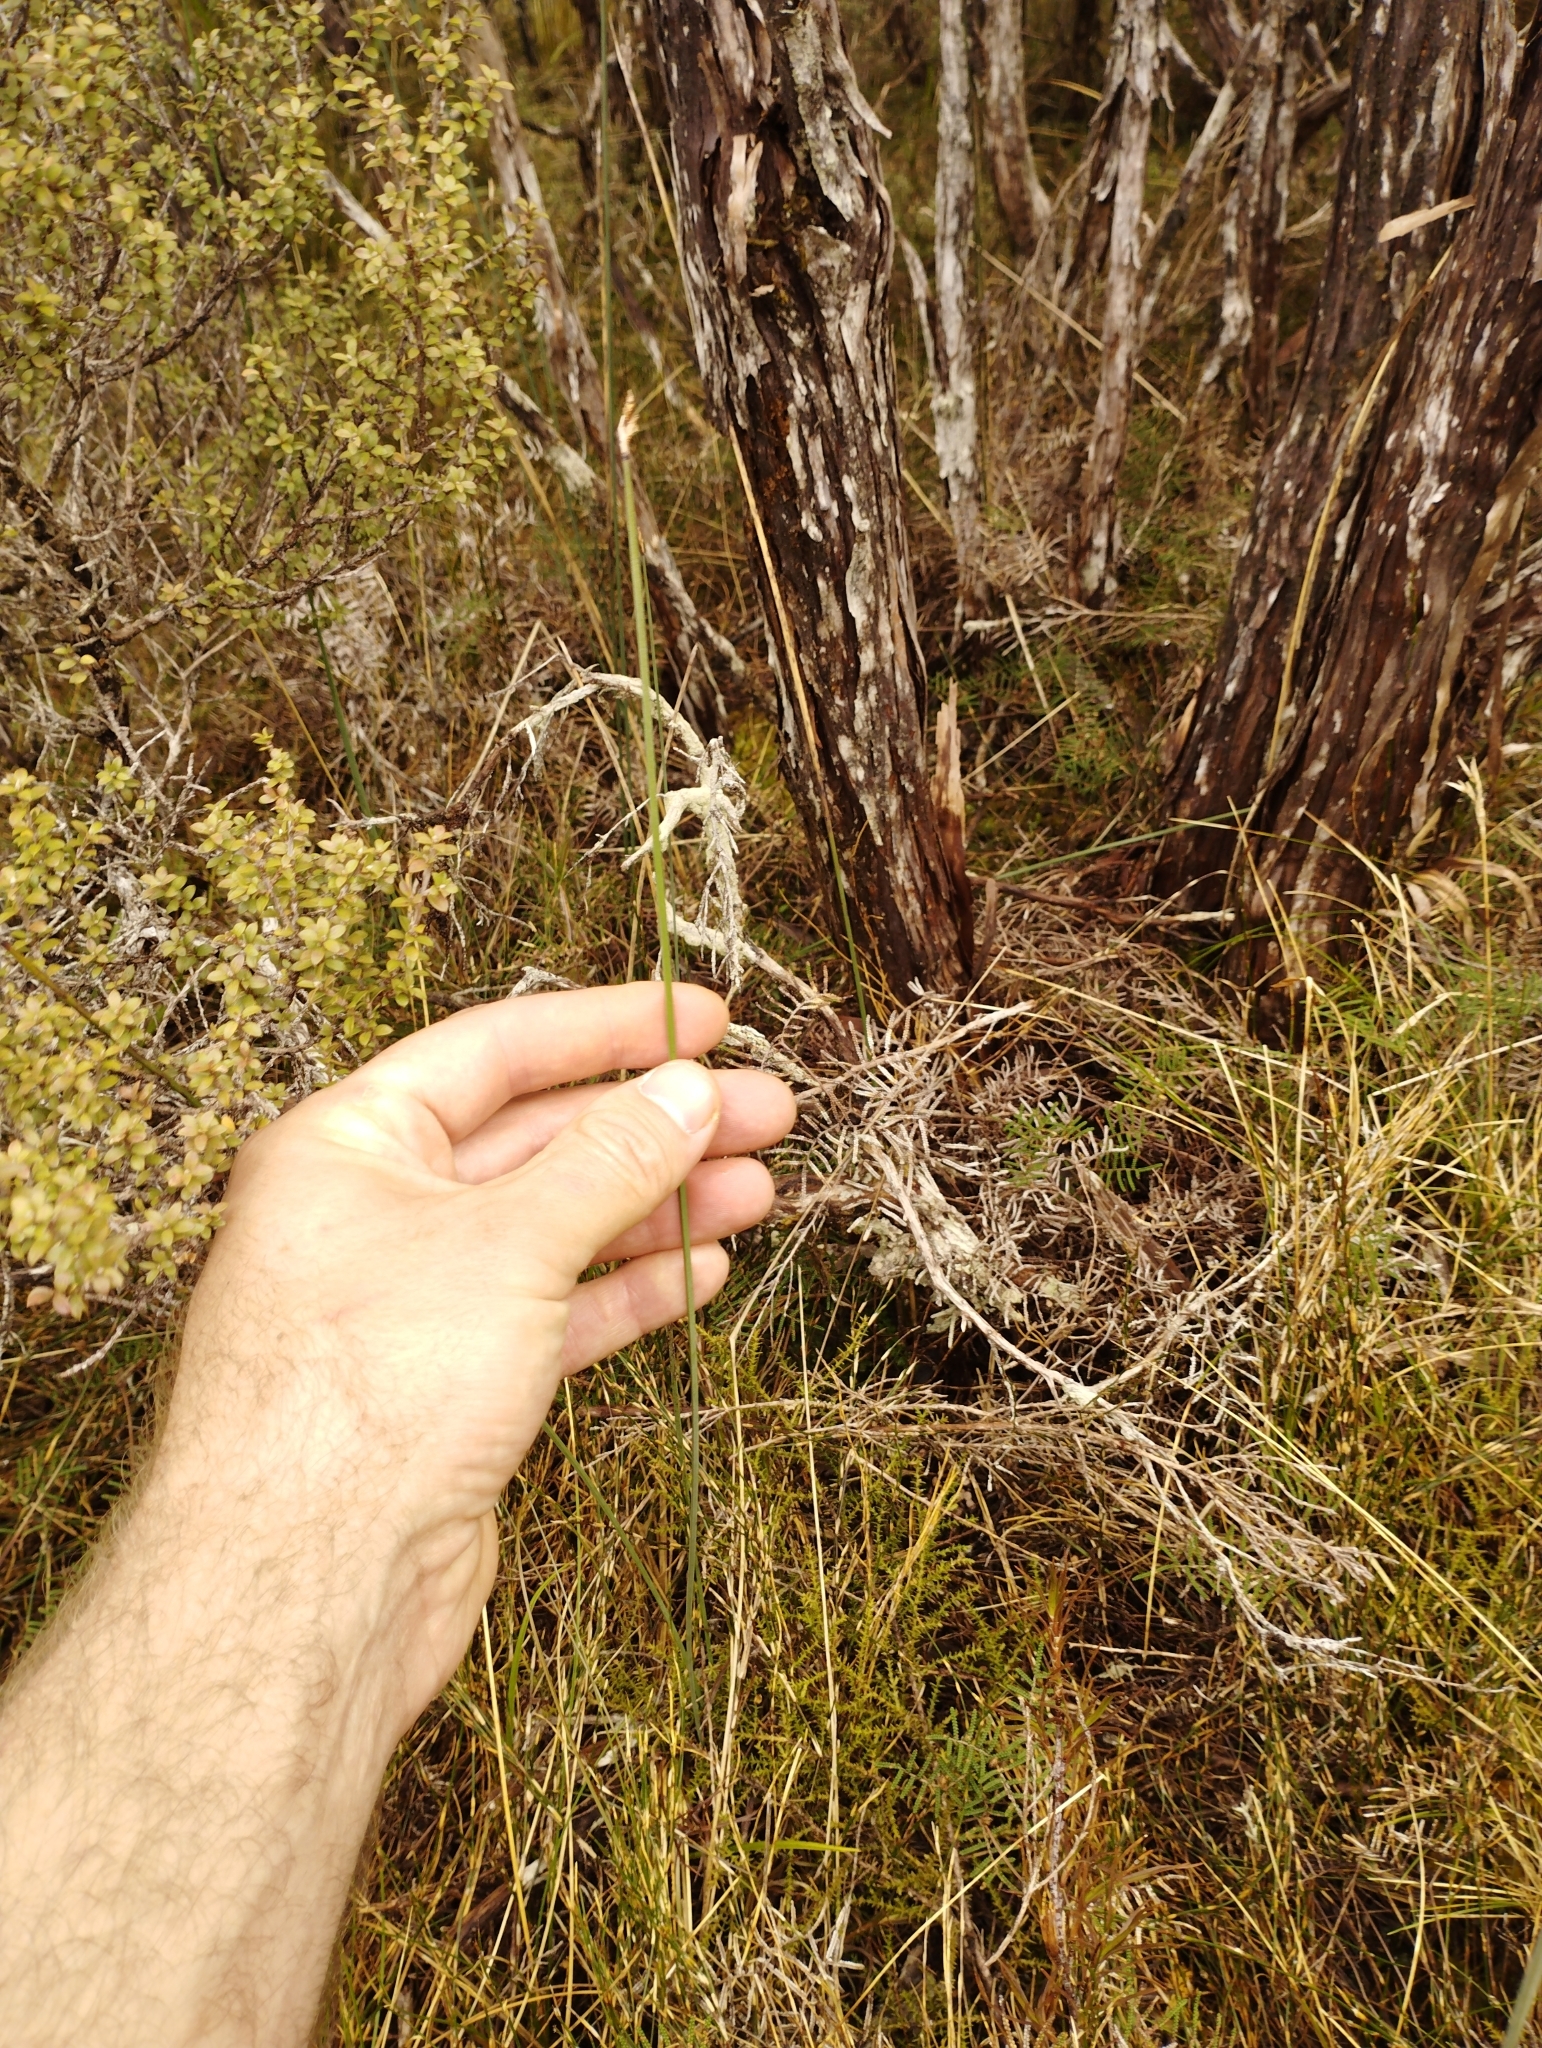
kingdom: Plantae
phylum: Tracheophyta
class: Liliopsida
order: Poales
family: Cyperaceae
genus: Lepidosperma
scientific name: Lepidosperma australe
